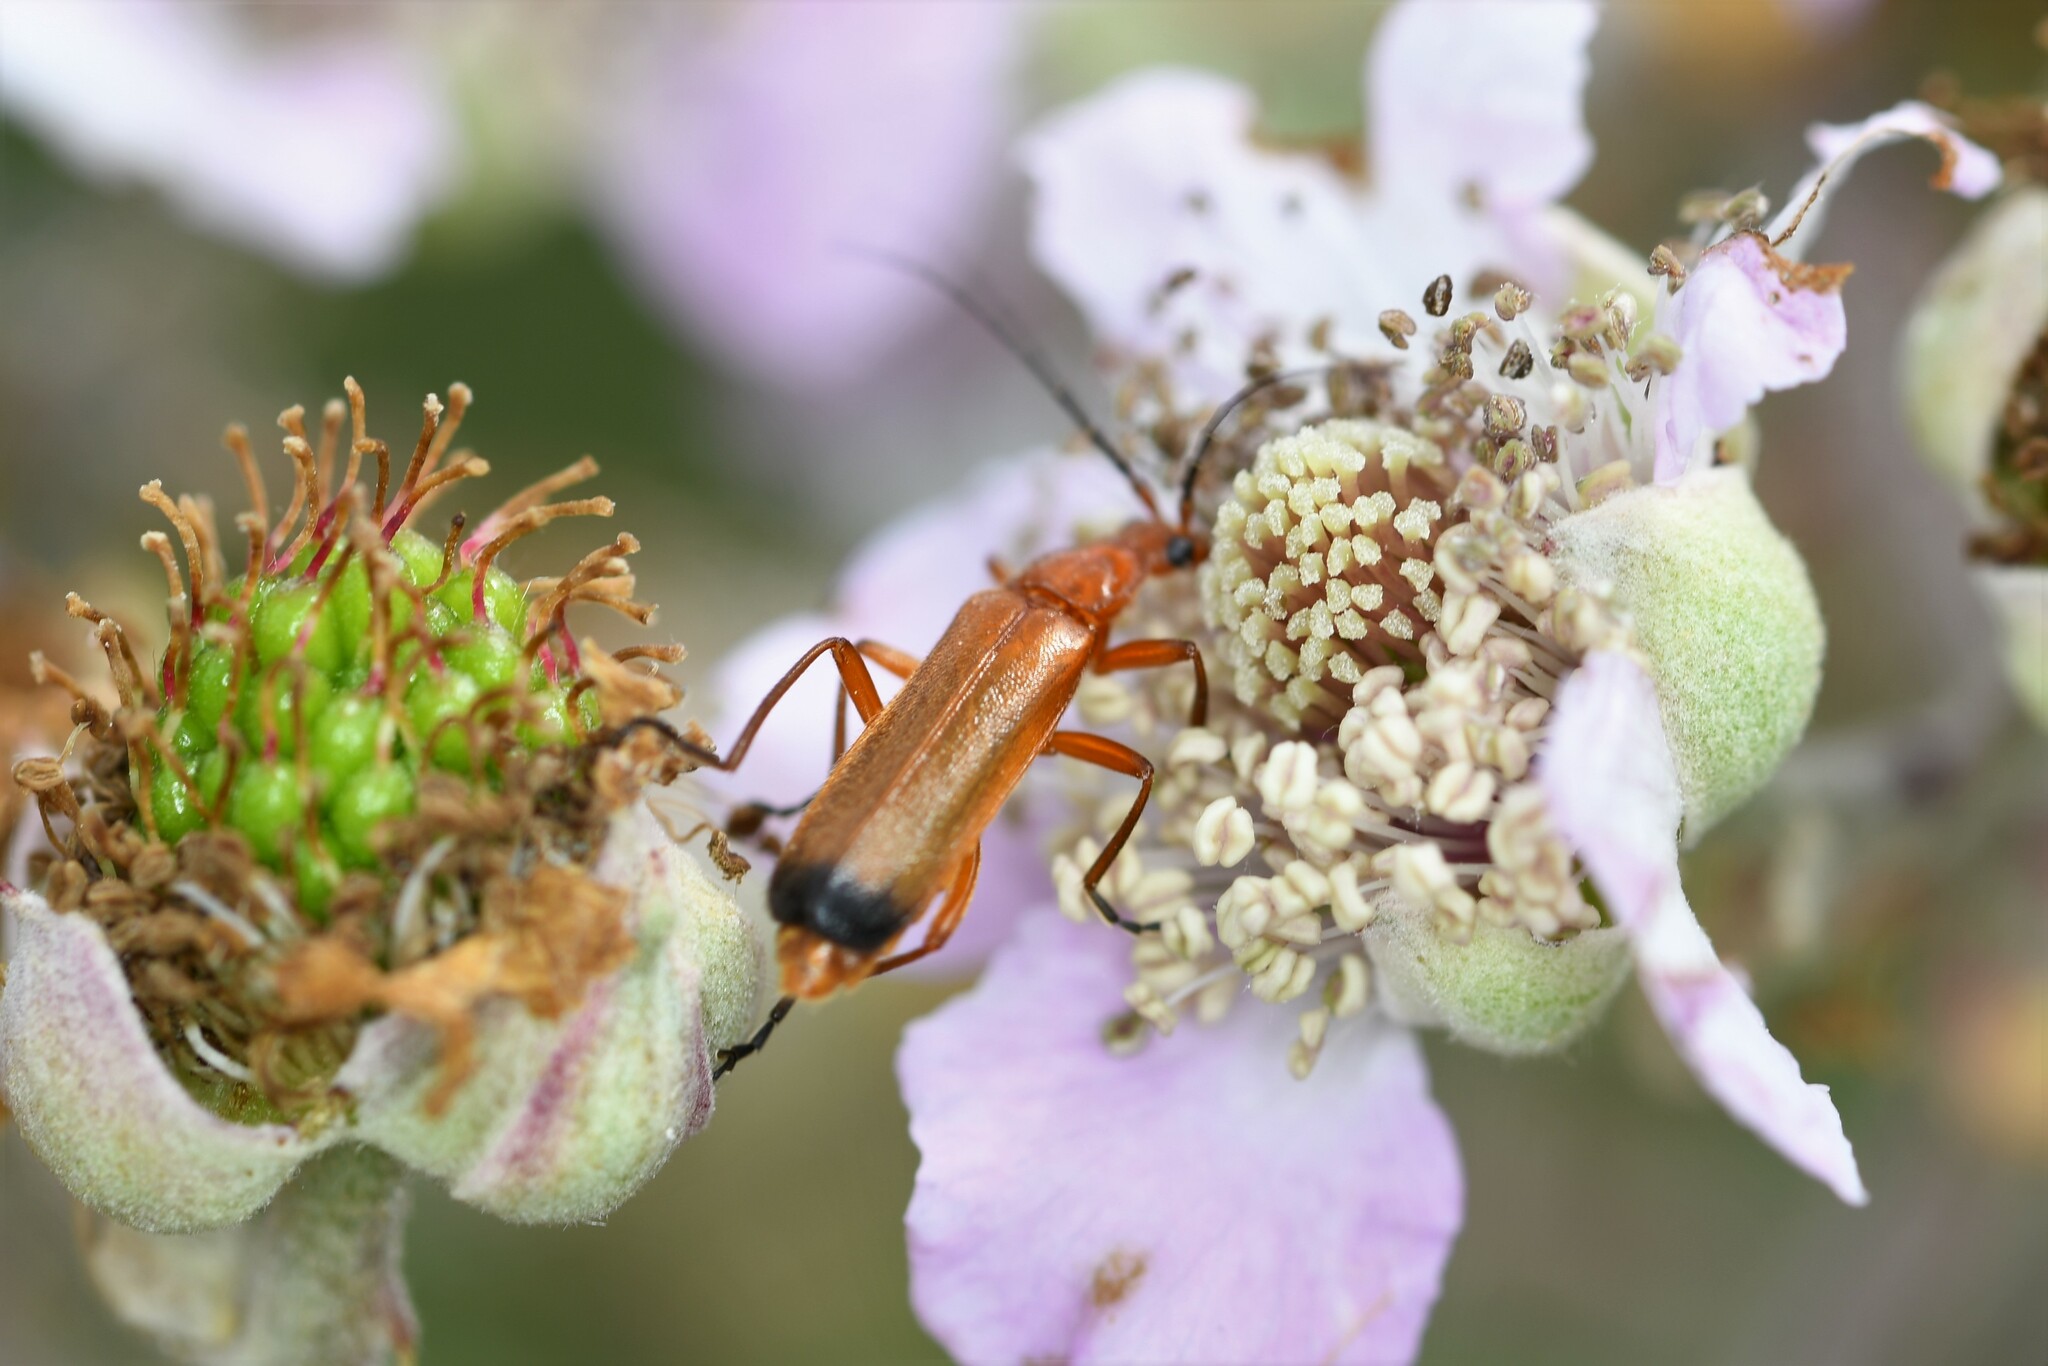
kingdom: Animalia
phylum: Arthropoda
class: Insecta
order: Coleoptera
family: Cantharidae
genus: Rhagonycha
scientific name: Rhagonycha fulva
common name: Common red soldier beetle
